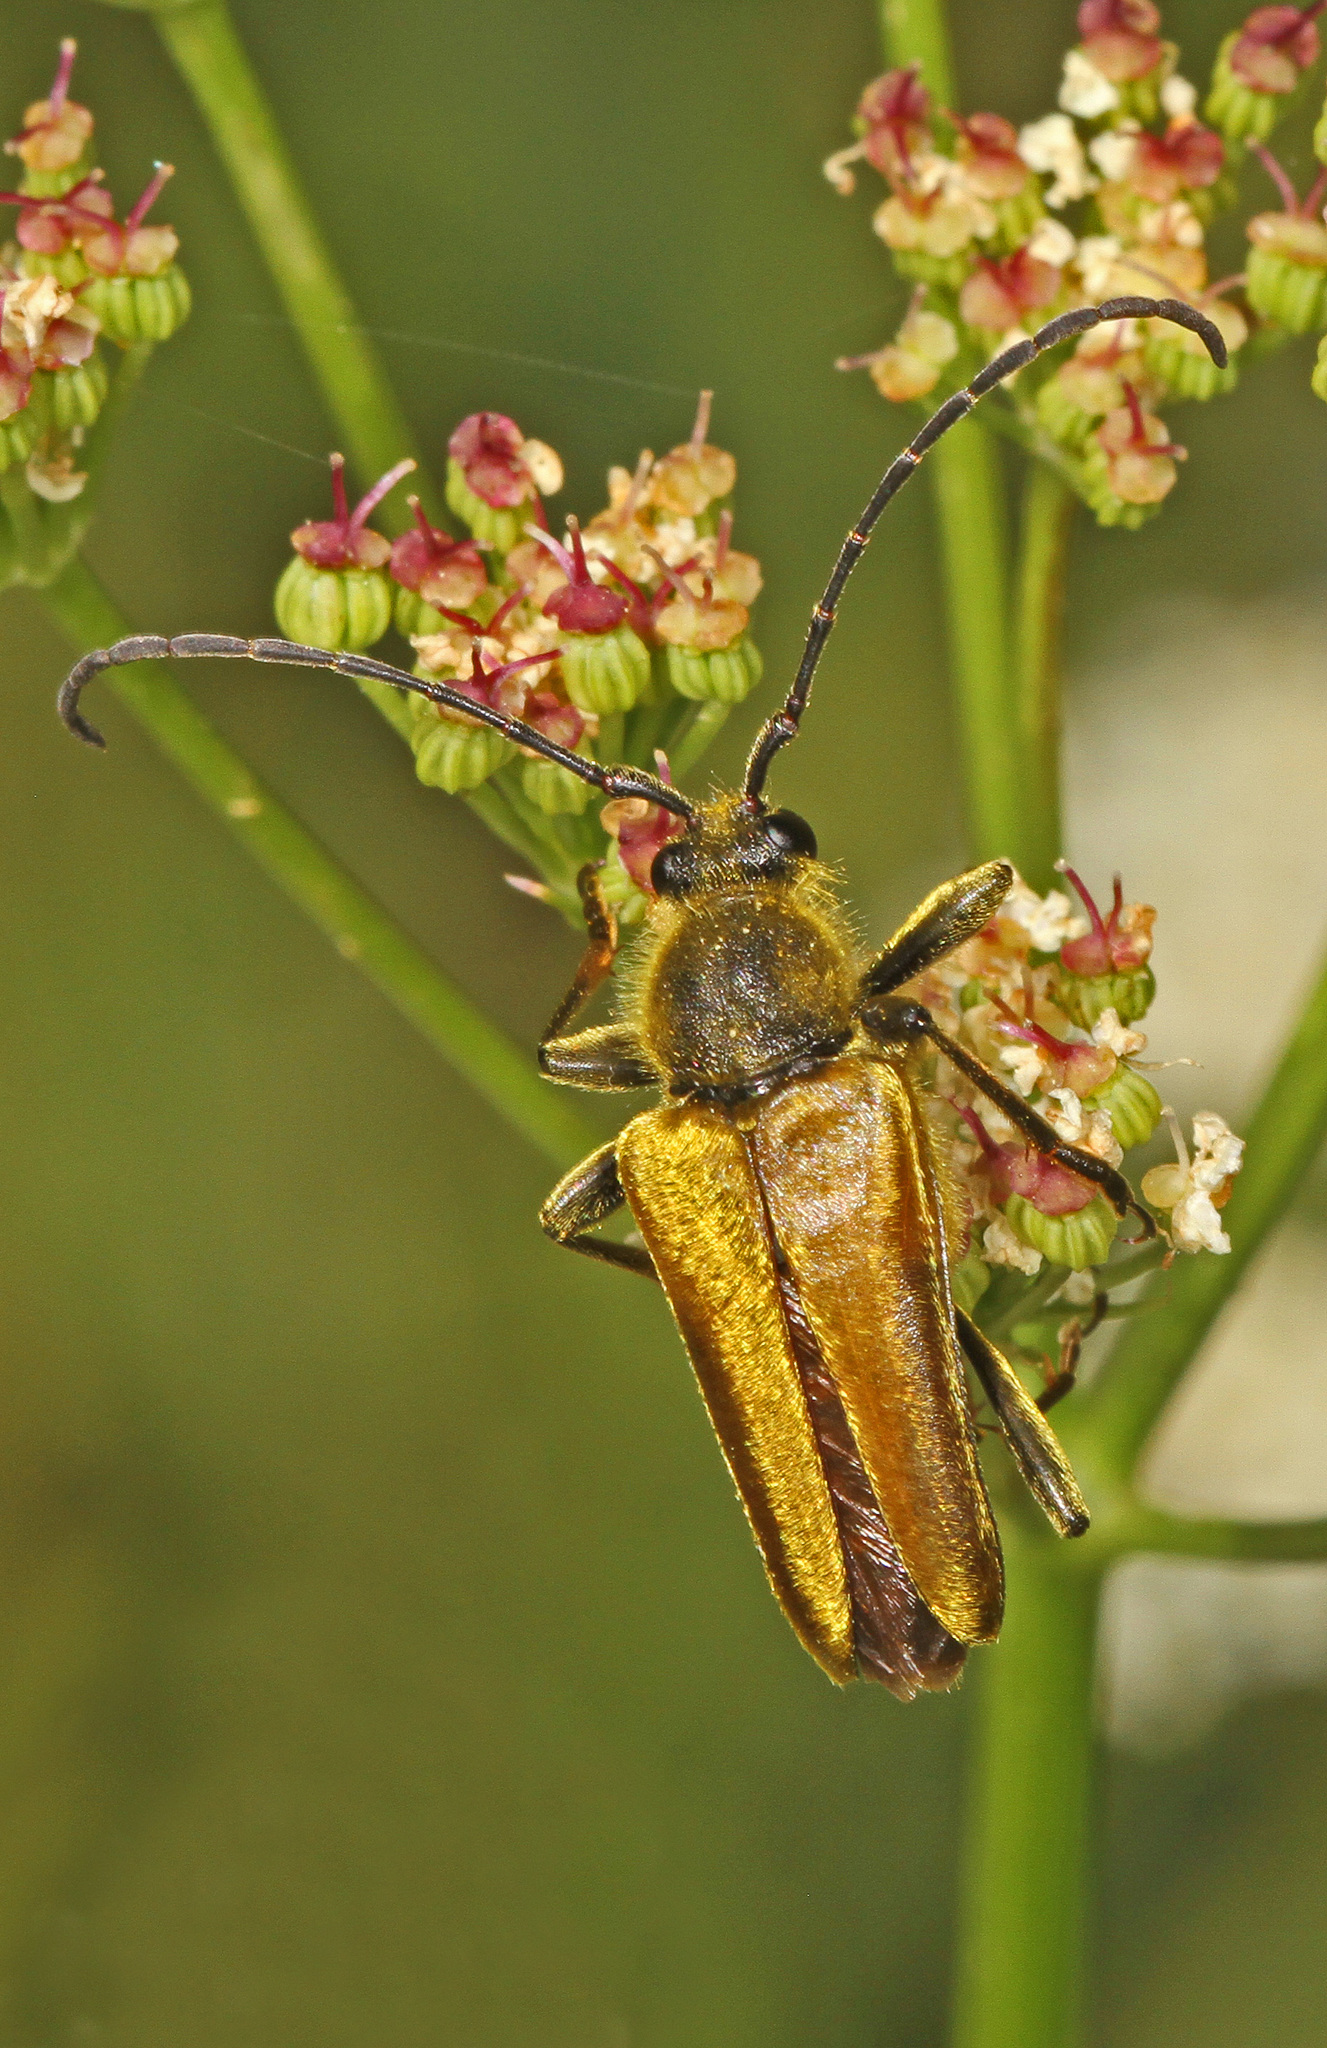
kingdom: Animalia
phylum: Arthropoda
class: Insecta
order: Coleoptera
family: Cerambycidae
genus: Cosmosalia
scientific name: Cosmosalia chrysocoma
